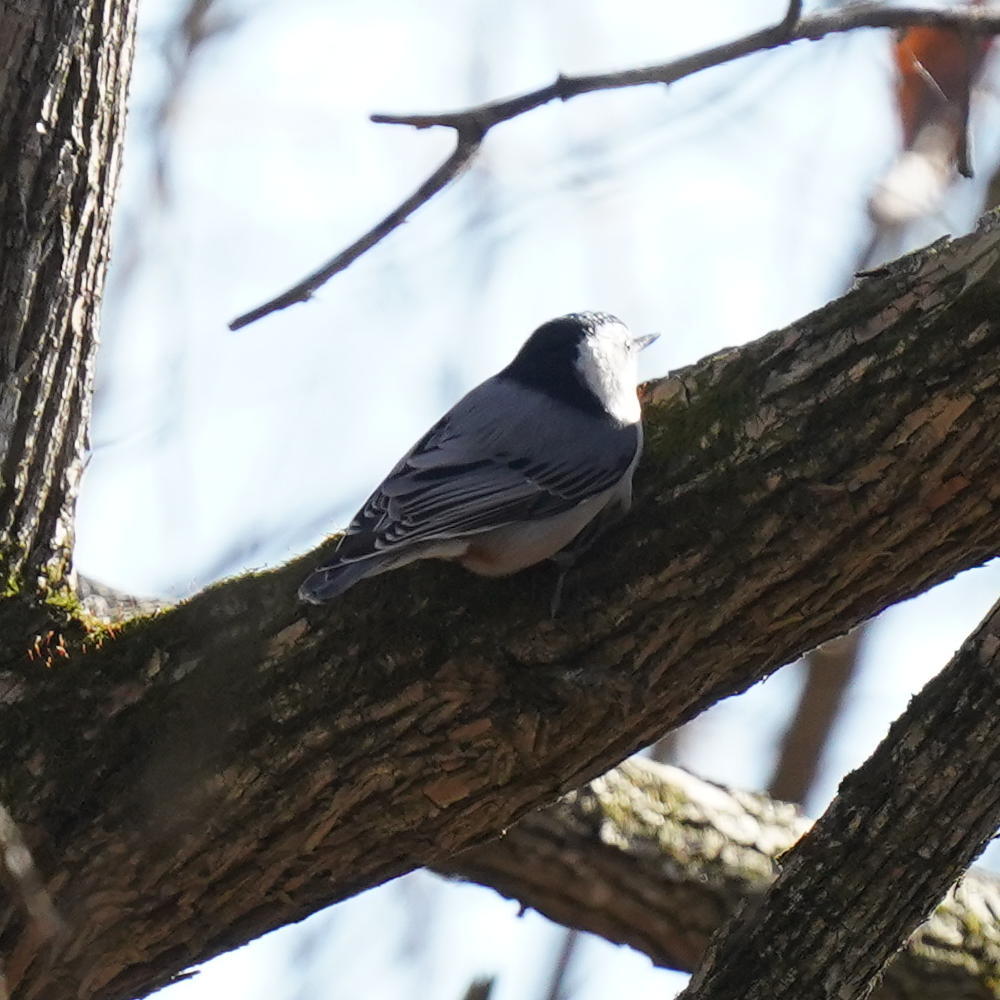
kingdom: Animalia
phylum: Chordata
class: Aves
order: Passeriformes
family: Sittidae
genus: Sitta
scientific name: Sitta carolinensis
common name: White-breasted nuthatch
